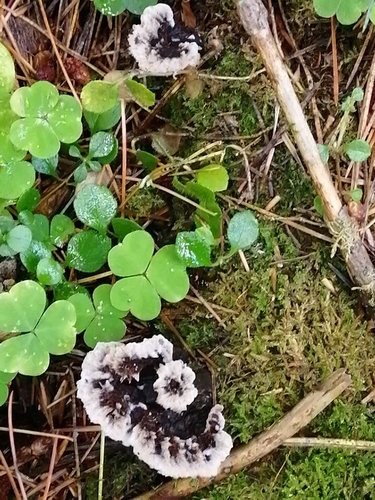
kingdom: Fungi
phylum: Basidiomycota
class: Agaricomycetes
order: Thelephorales
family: Thelephoraceae
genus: Thelephora
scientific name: Thelephora terrestris
